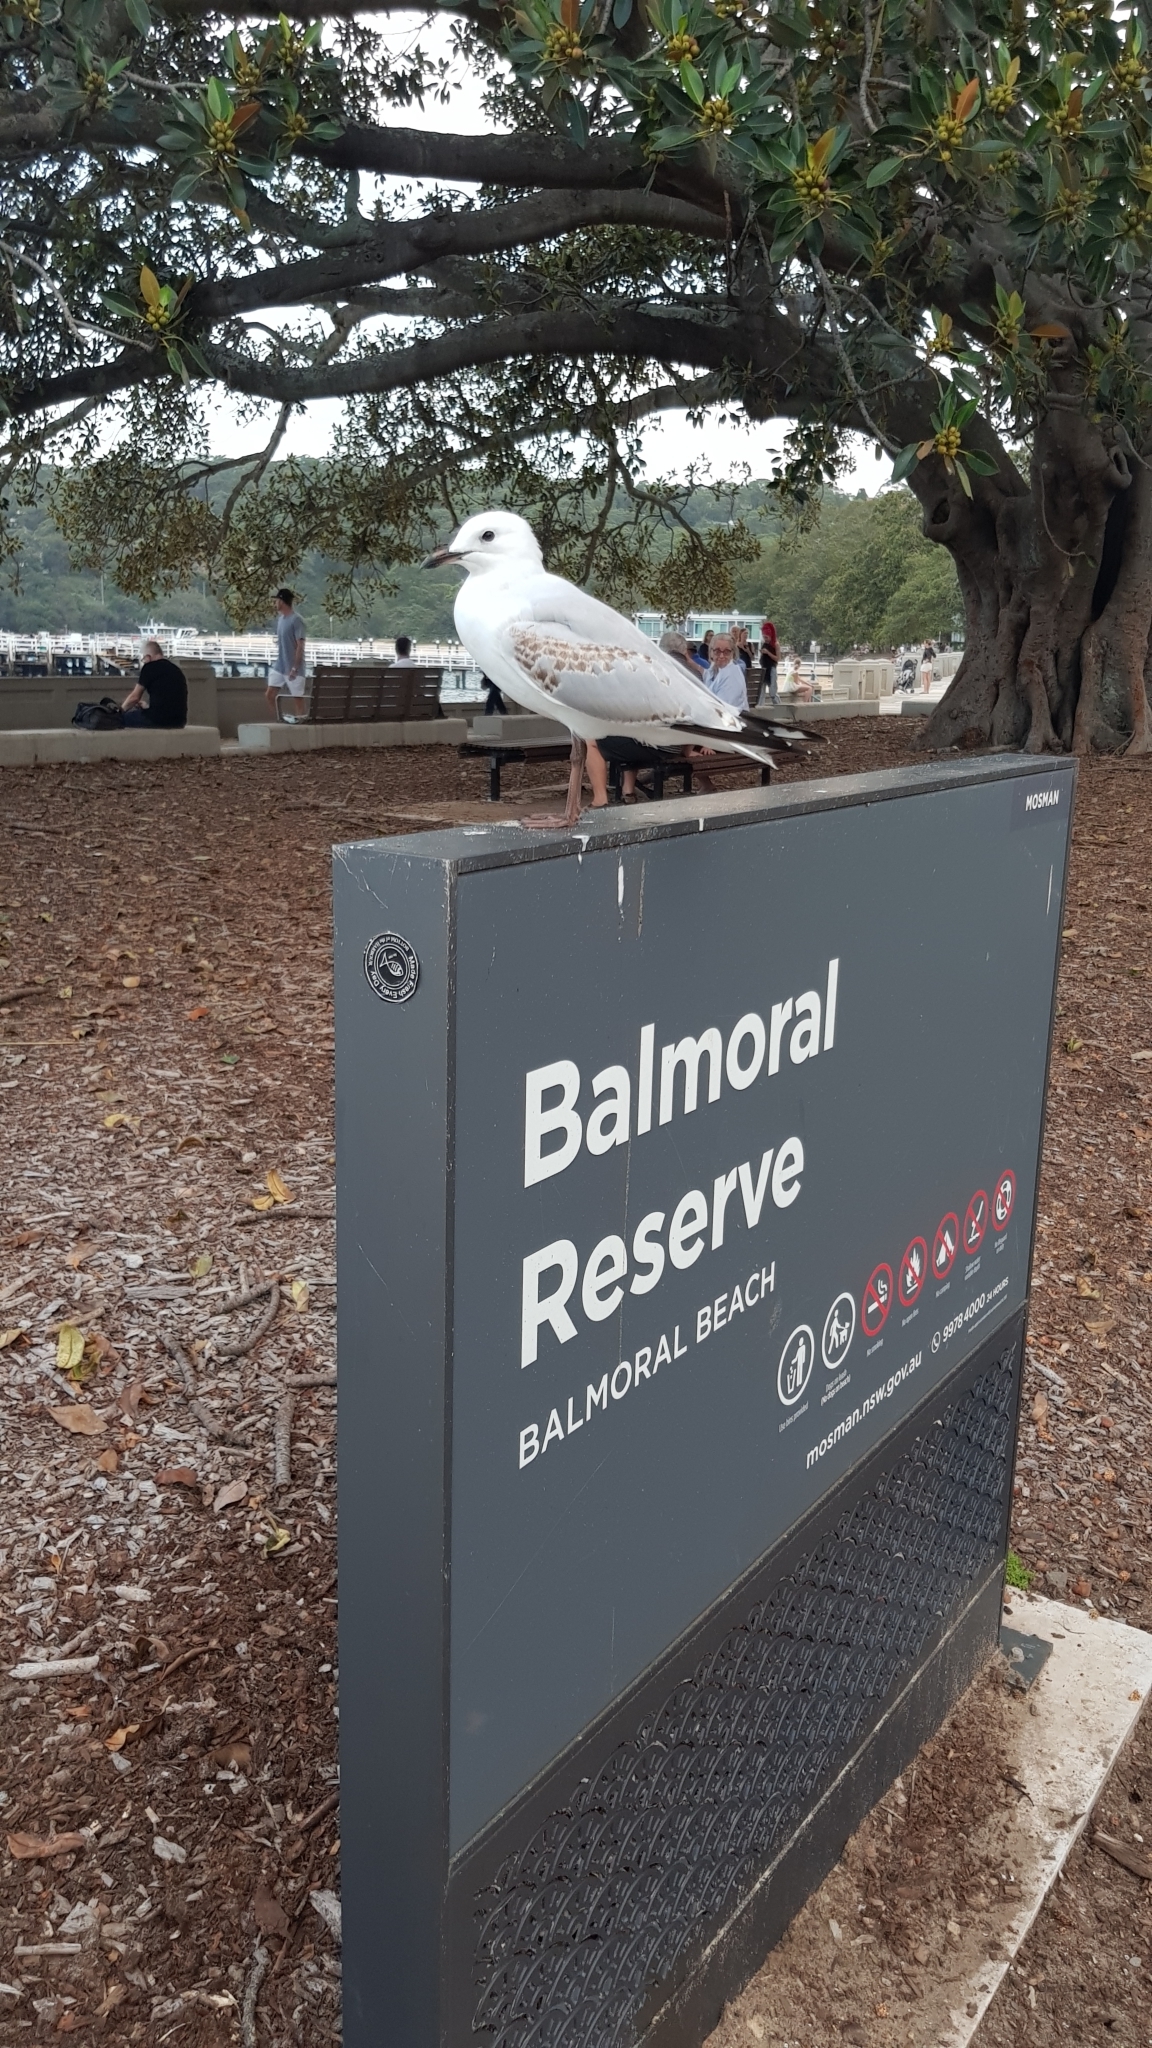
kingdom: Animalia
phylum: Chordata
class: Aves
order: Charadriiformes
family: Laridae
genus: Chroicocephalus
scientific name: Chroicocephalus novaehollandiae
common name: Silver gull
